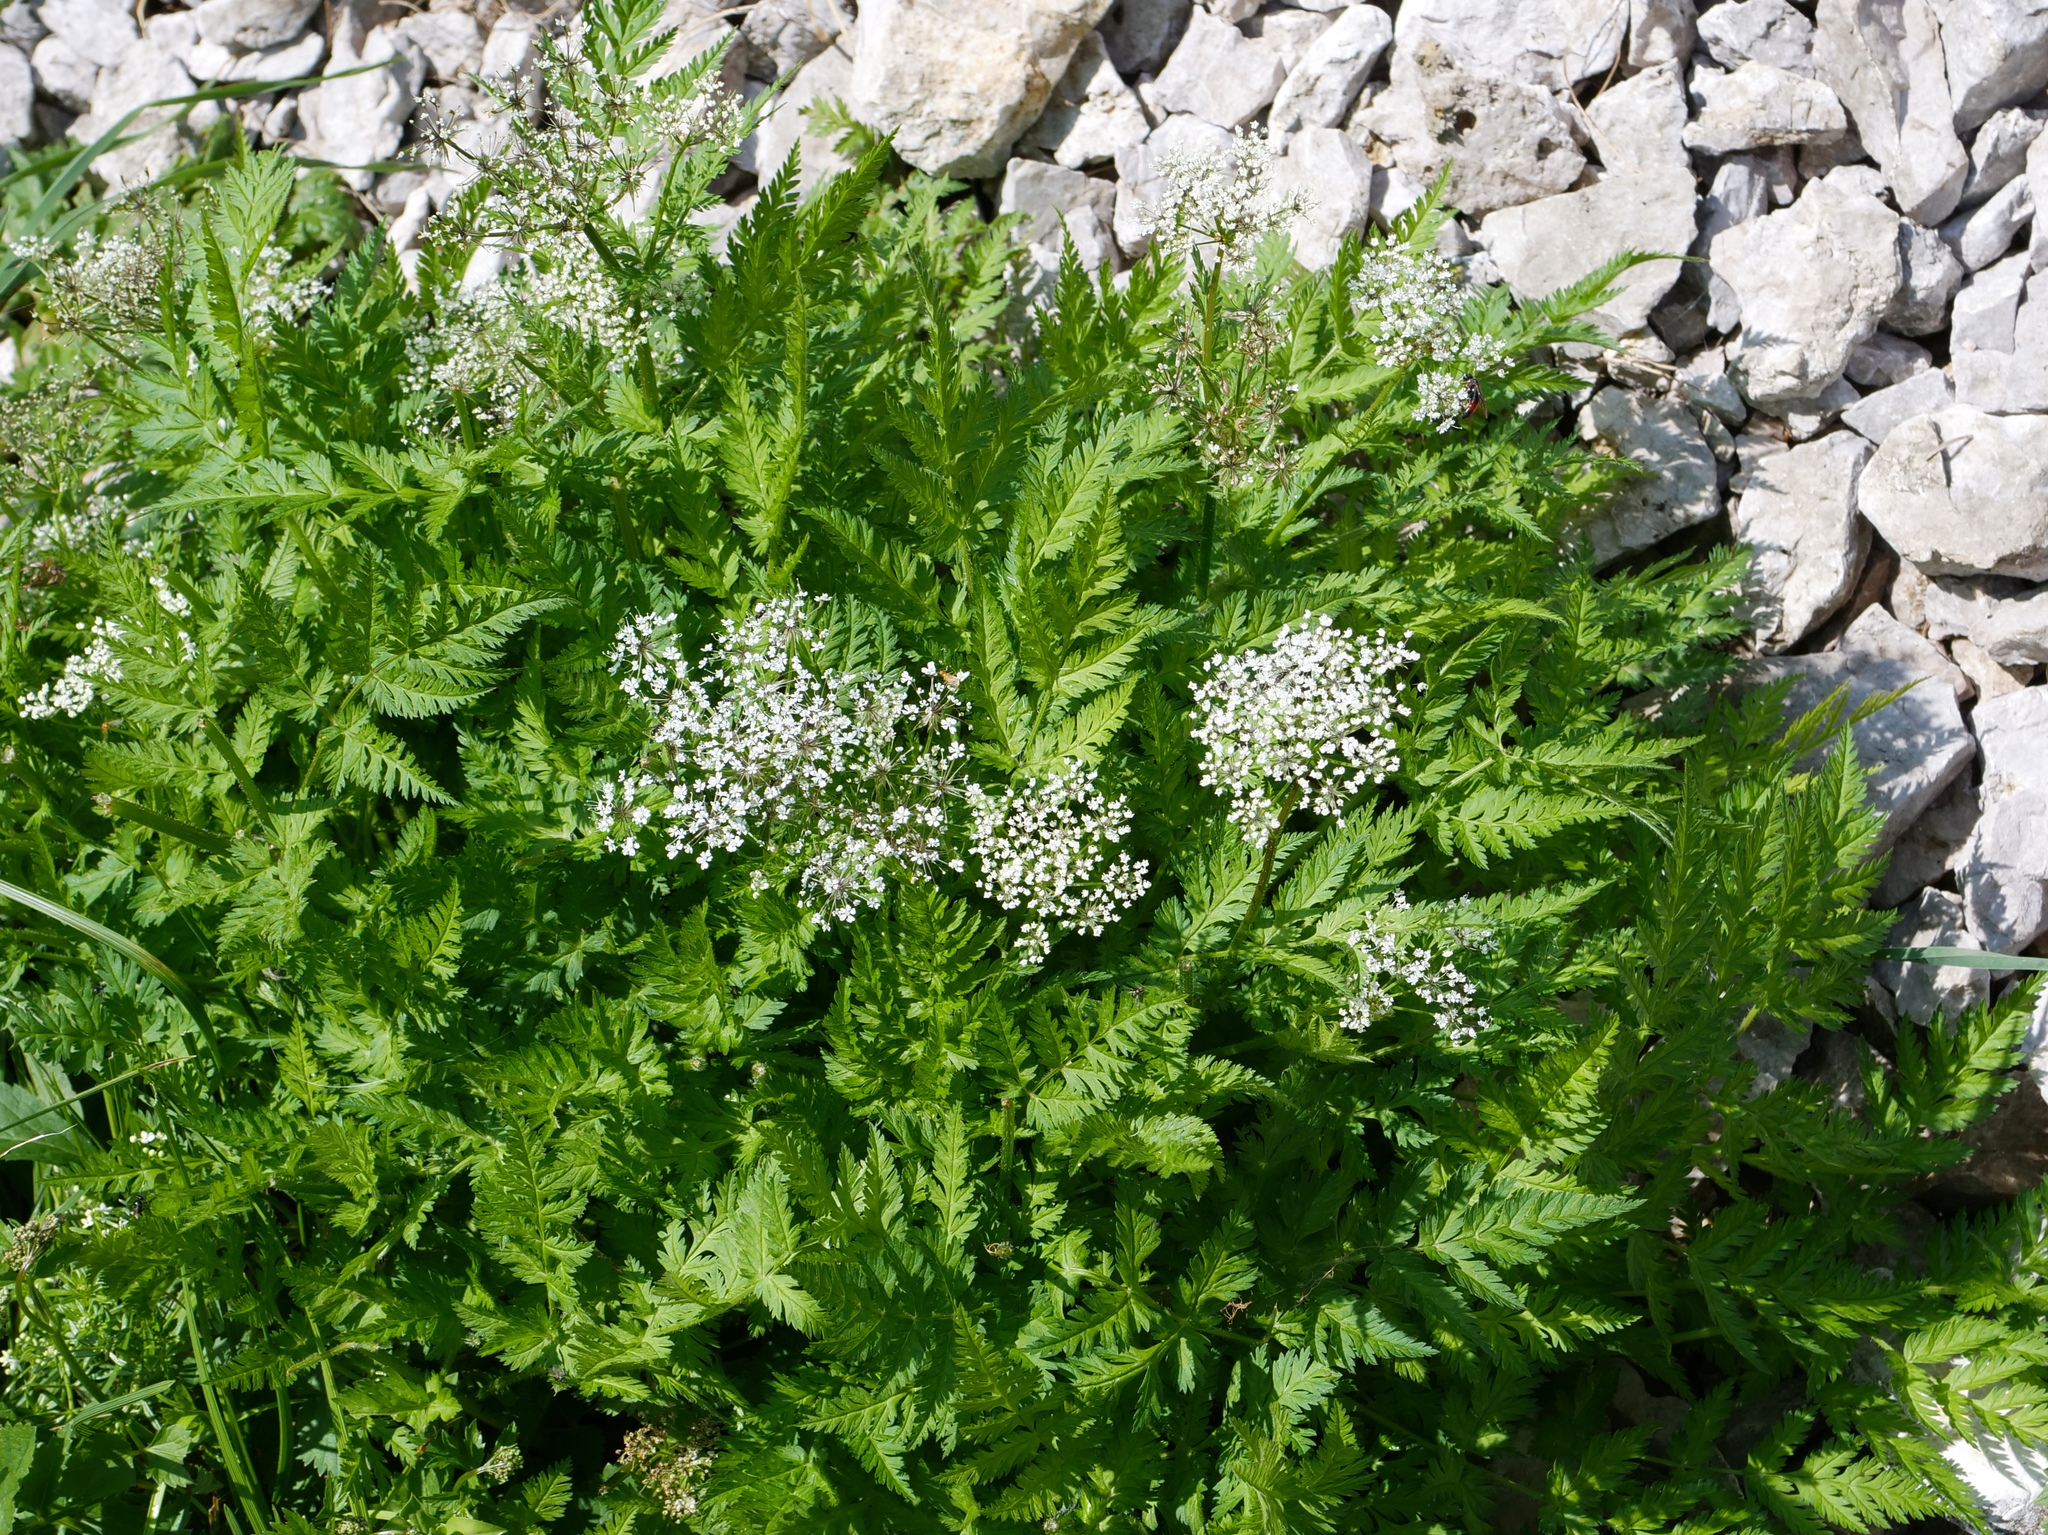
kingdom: Plantae
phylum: Tracheophyta
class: Magnoliopsida
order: Apiales
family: Apiaceae
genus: Chaerophyllum
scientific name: Chaerophyllum villarsii
